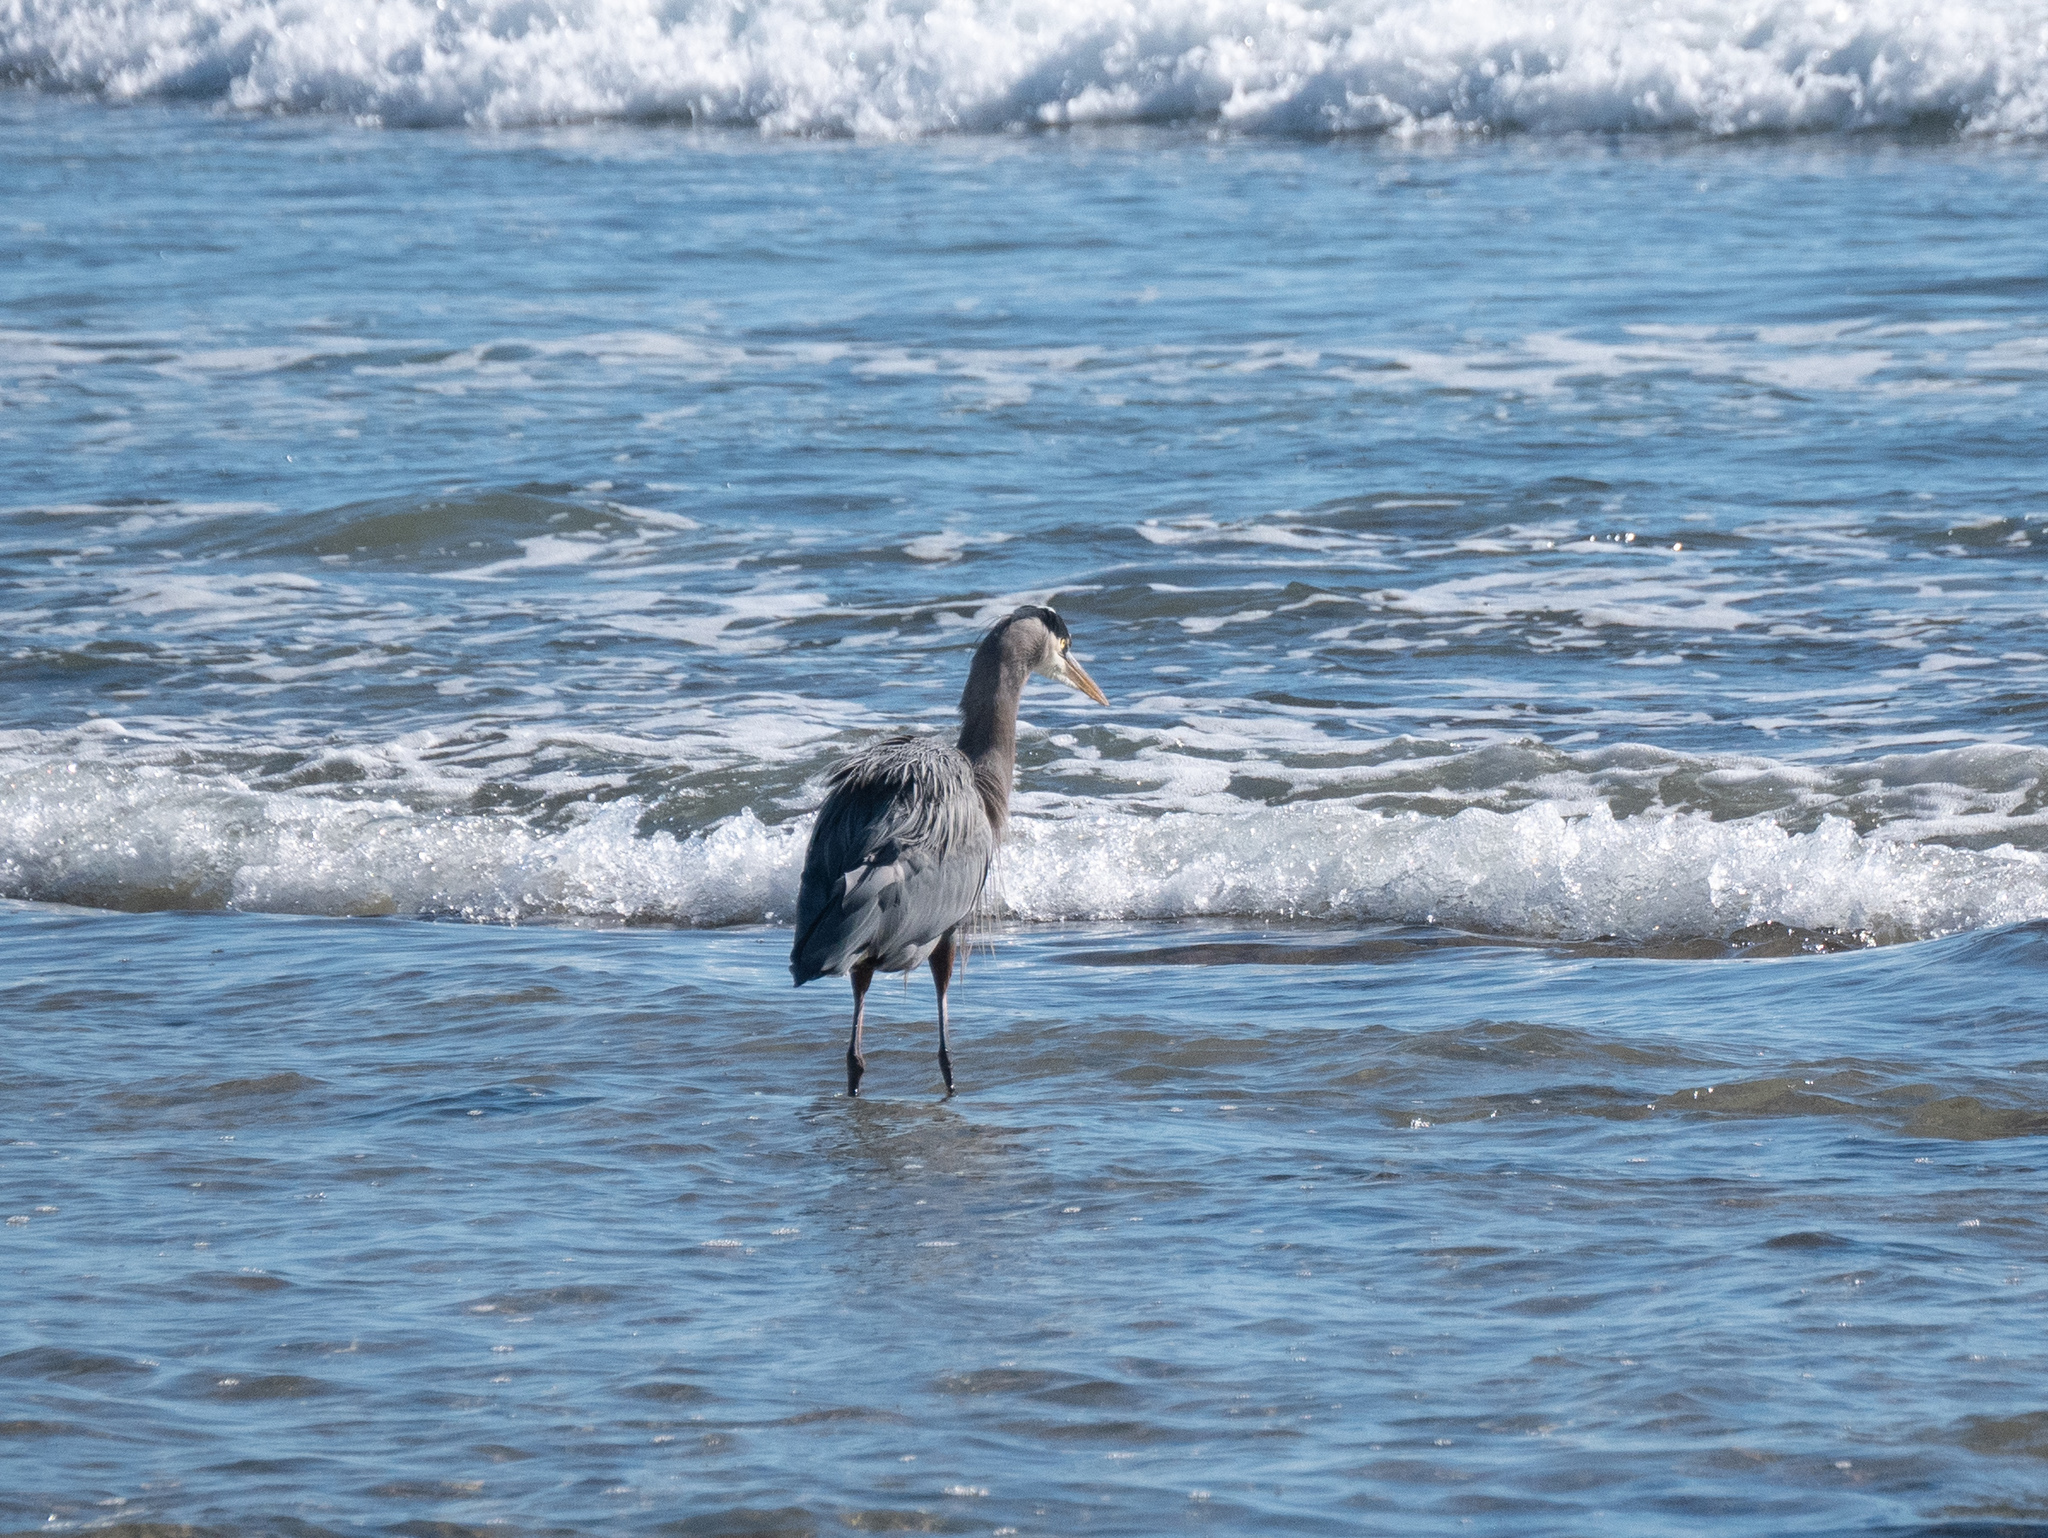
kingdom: Animalia
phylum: Chordata
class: Aves
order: Pelecaniformes
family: Ardeidae
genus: Ardea
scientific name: Ardea herodias
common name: Great blue heron
